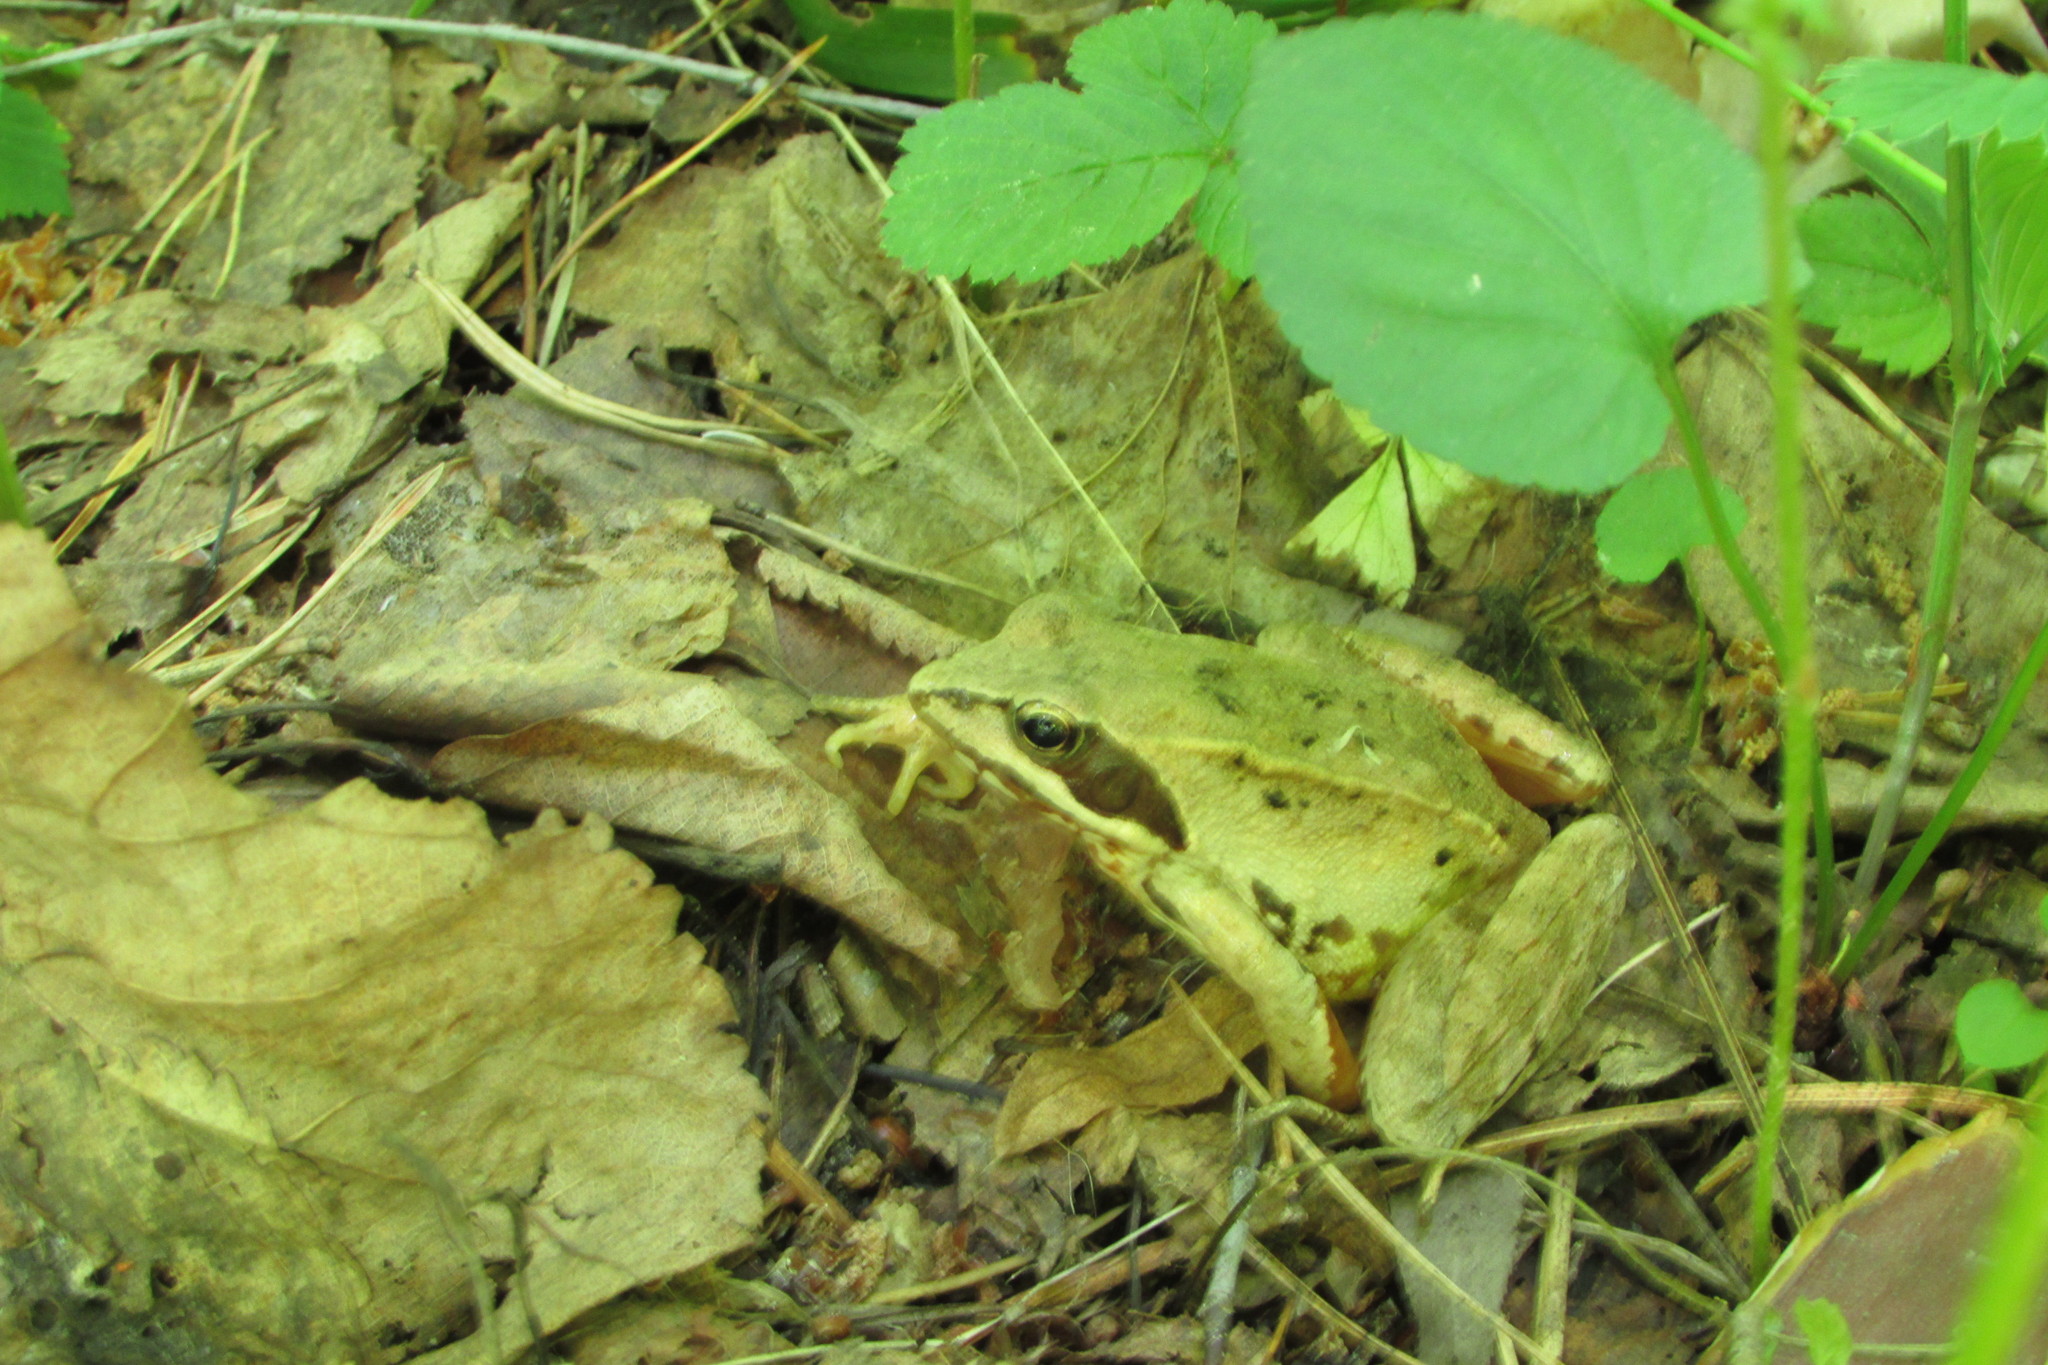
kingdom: Animalia
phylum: Chordata
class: Amphibia
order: Anura
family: Ranidae
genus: Rana
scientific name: Rana arvalis
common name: Moor frog
